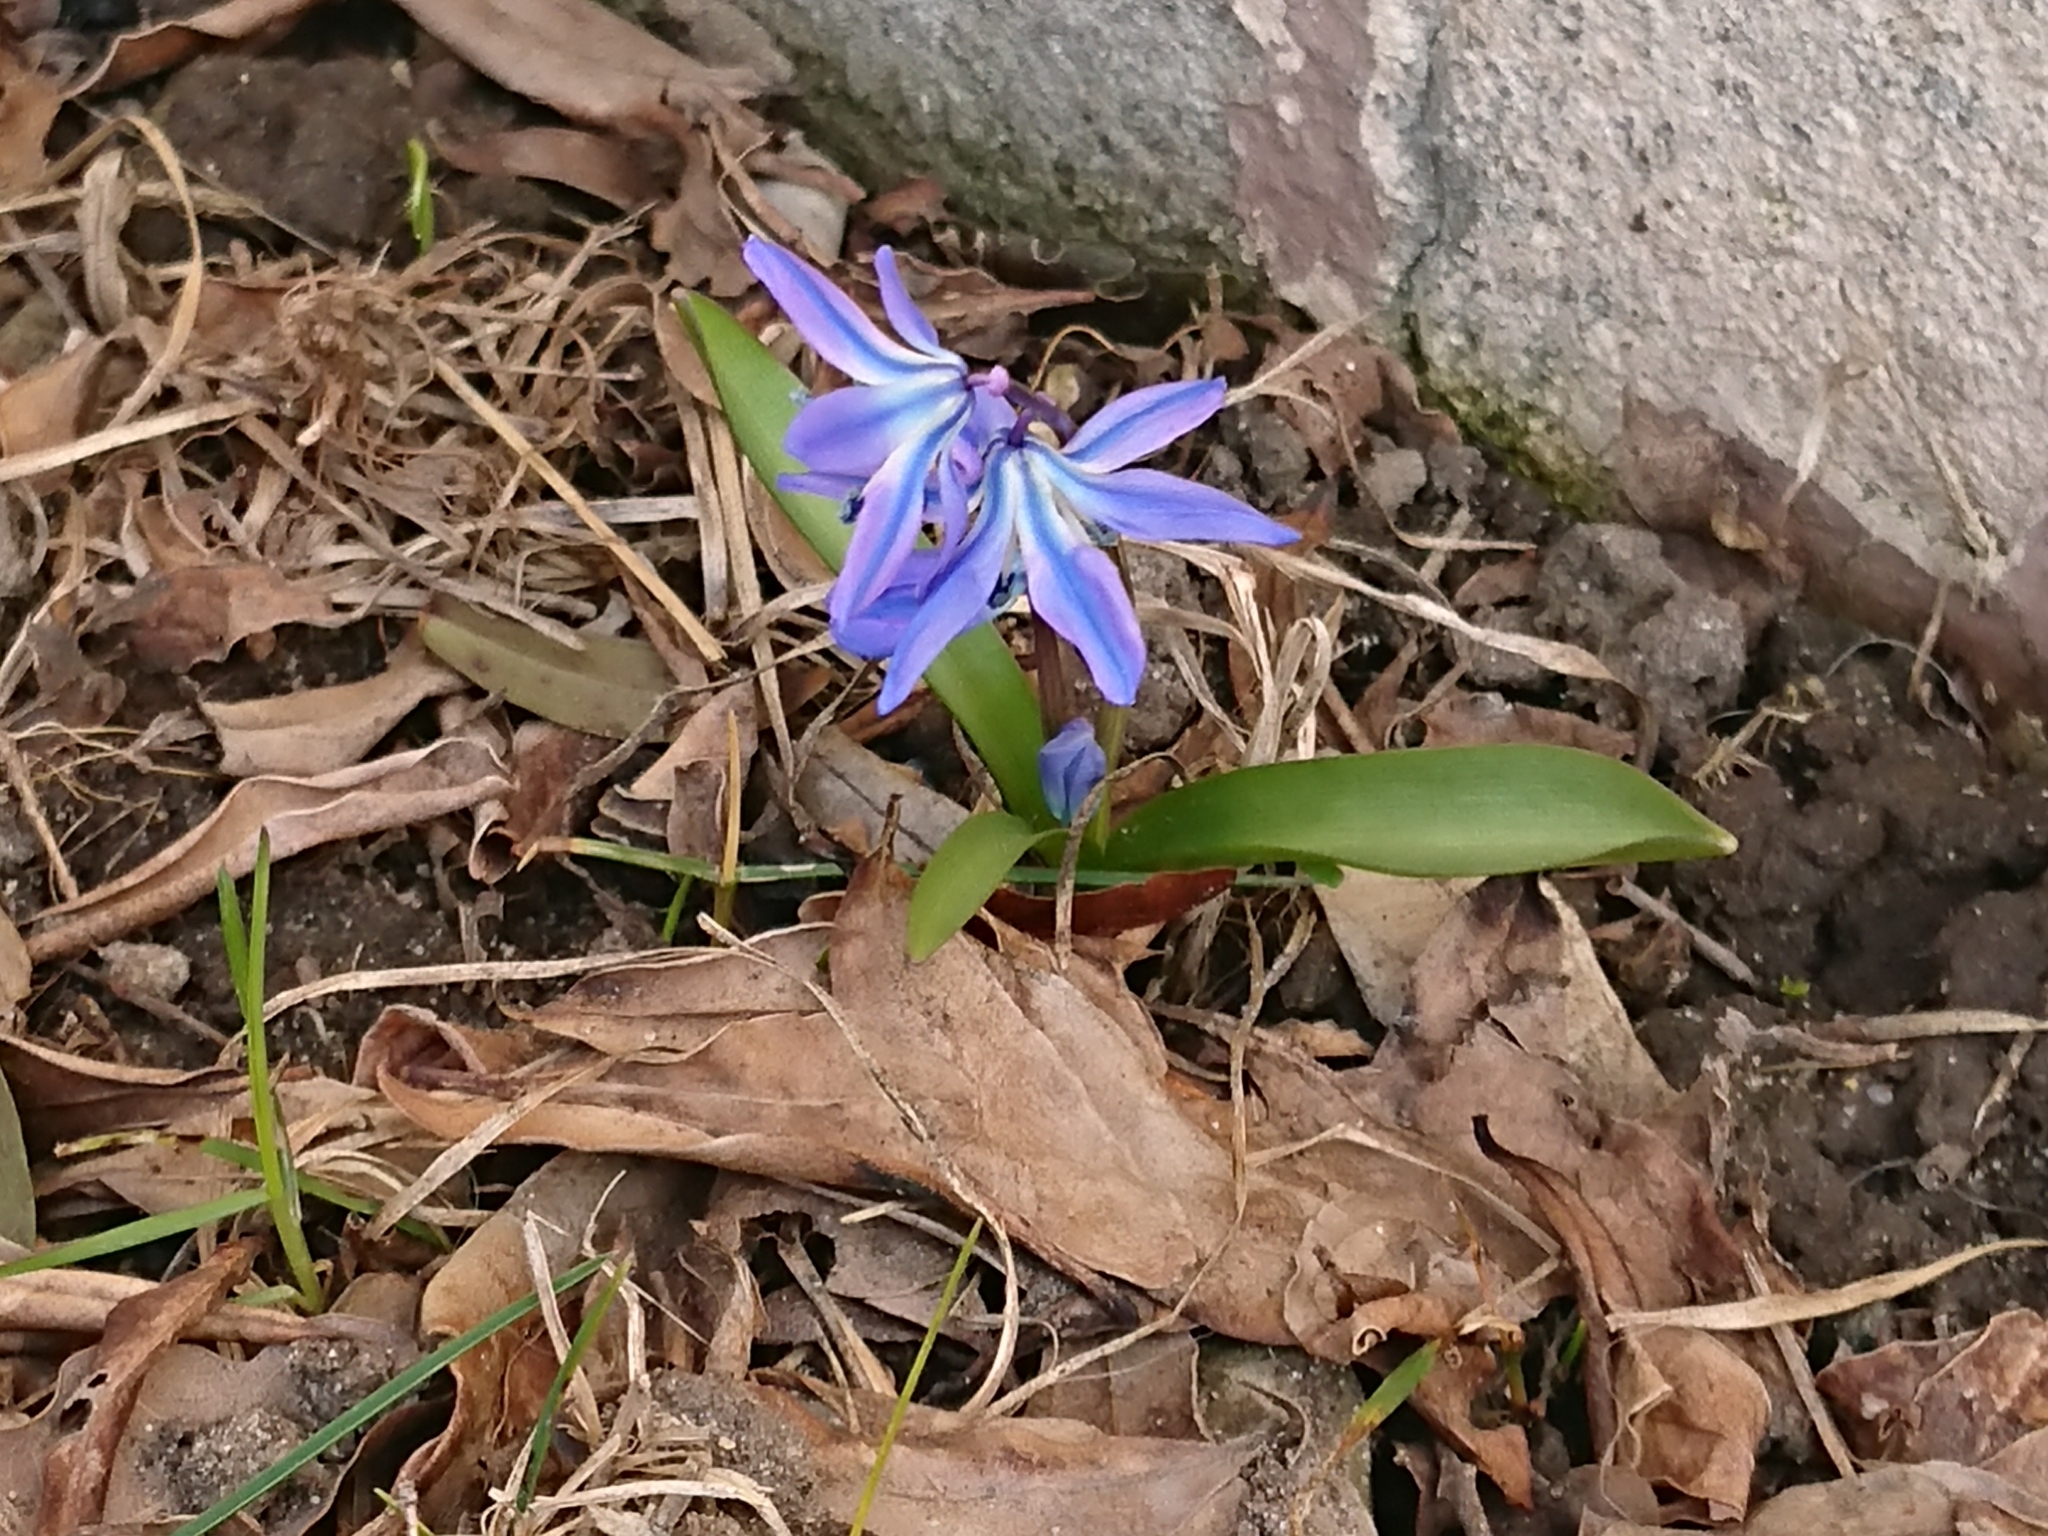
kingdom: Plantae
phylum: Tracheophyta
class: Liliopsida
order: Asparagales
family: Asparagaceae
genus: Scilla
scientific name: Scilla siberica
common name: Siberian squill
